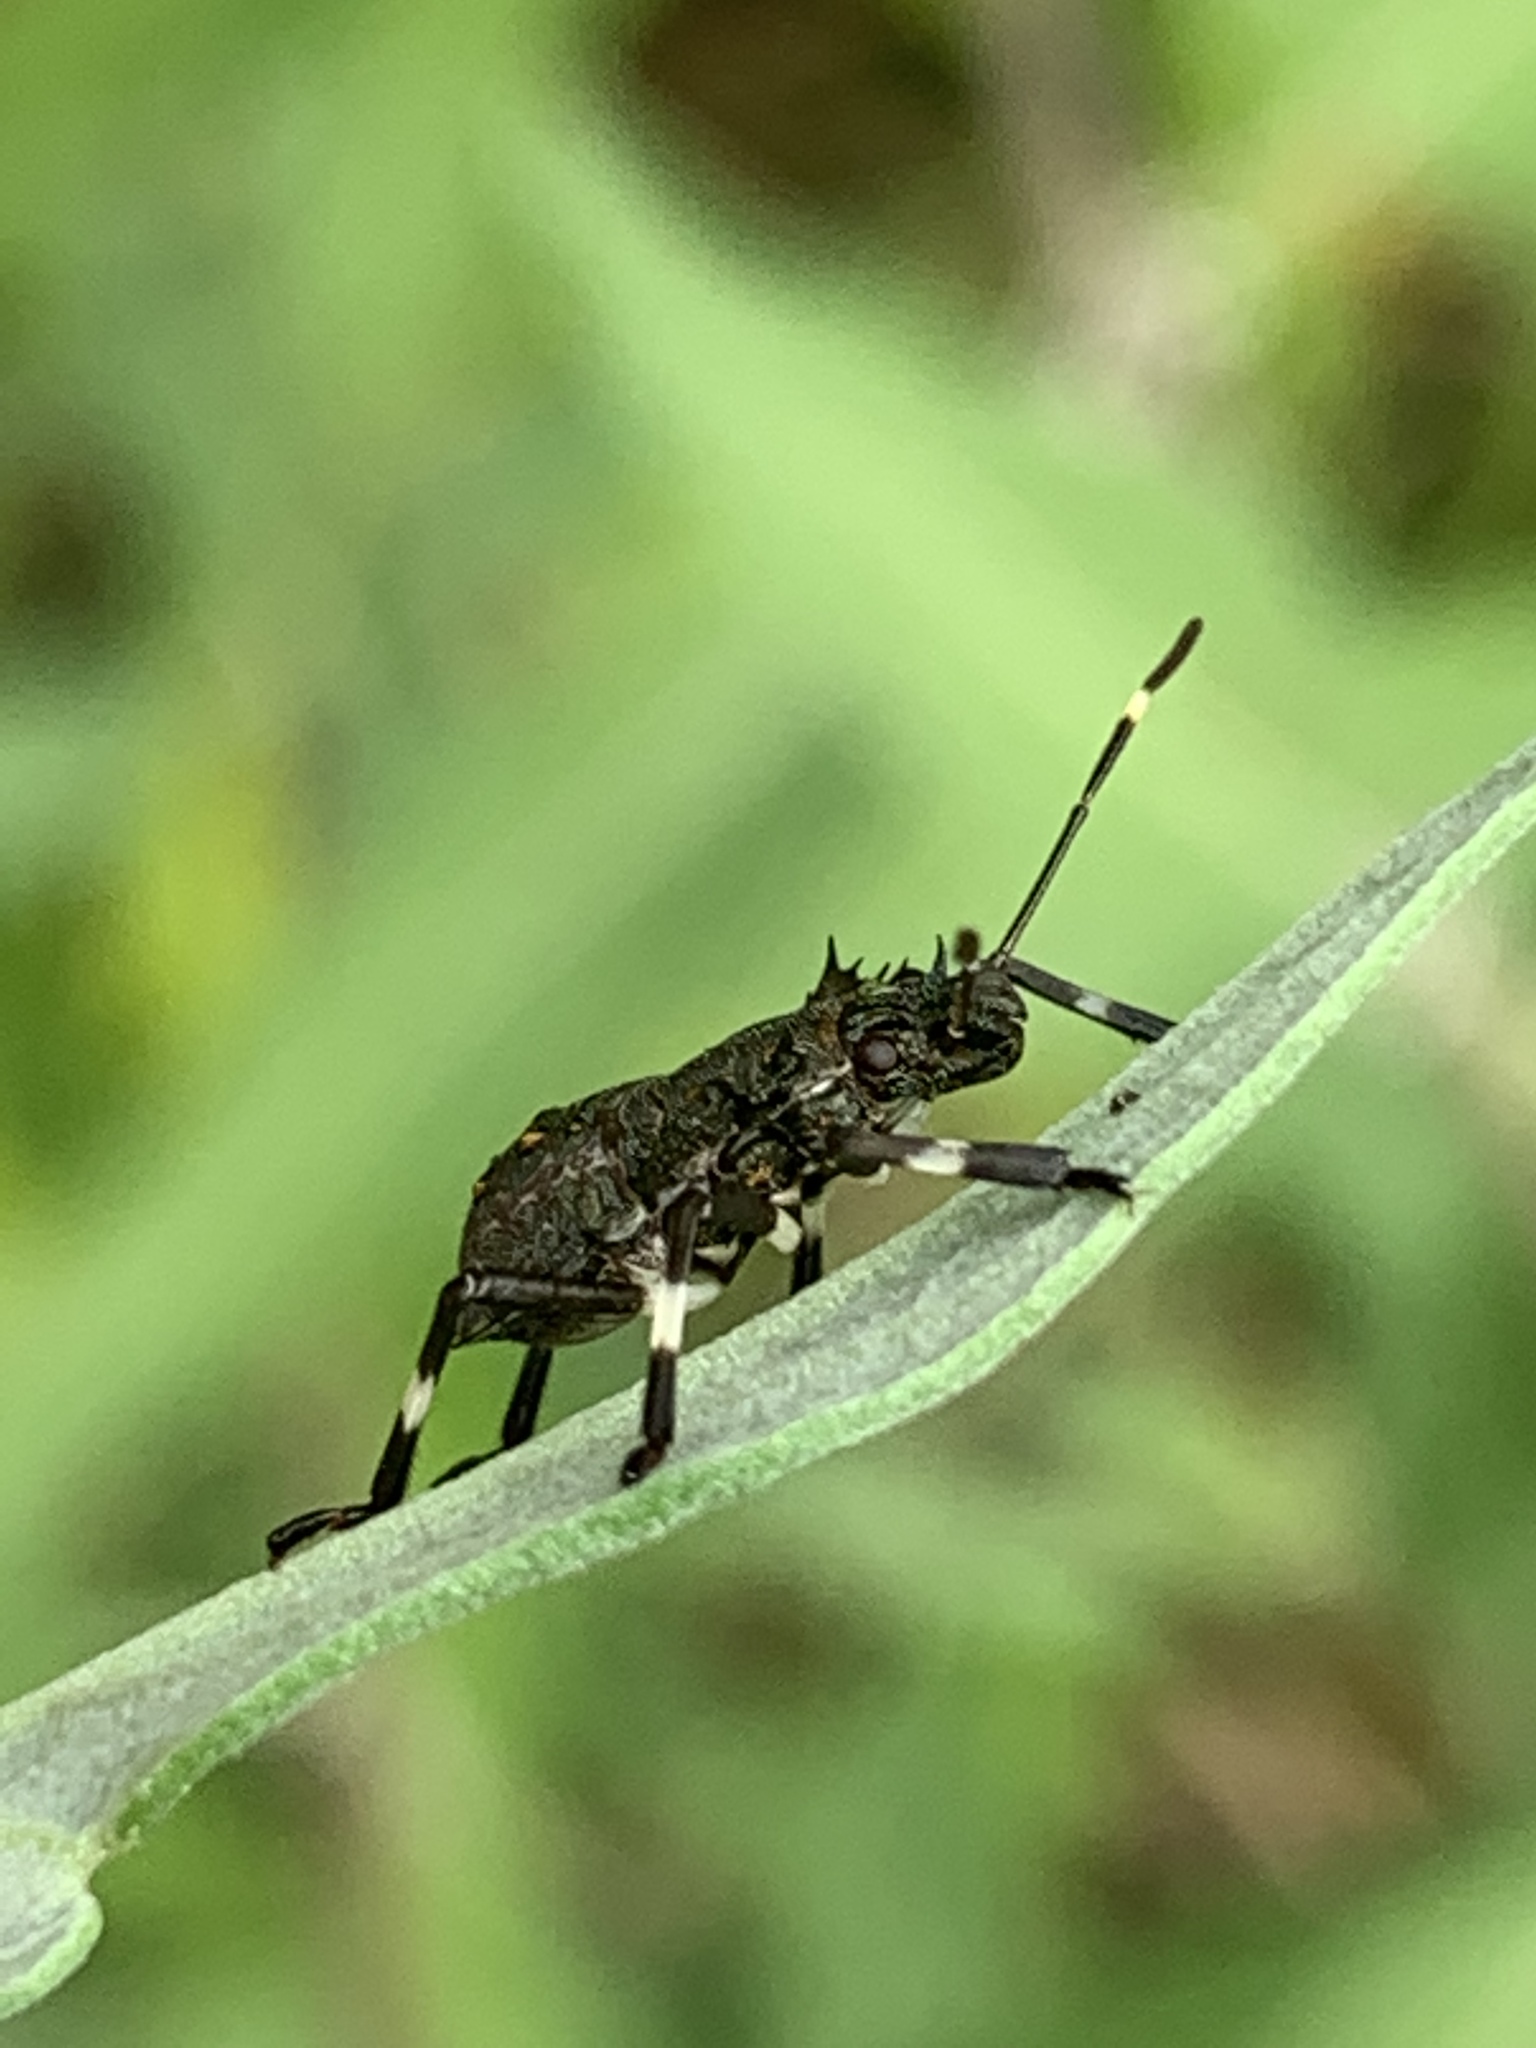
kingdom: Animalia
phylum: Arthropoda
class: Insecta
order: Hemiptera
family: Pentatomidae
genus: Halyomorpha
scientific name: Halyomorpha halys
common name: Brown marmorated stink bug
